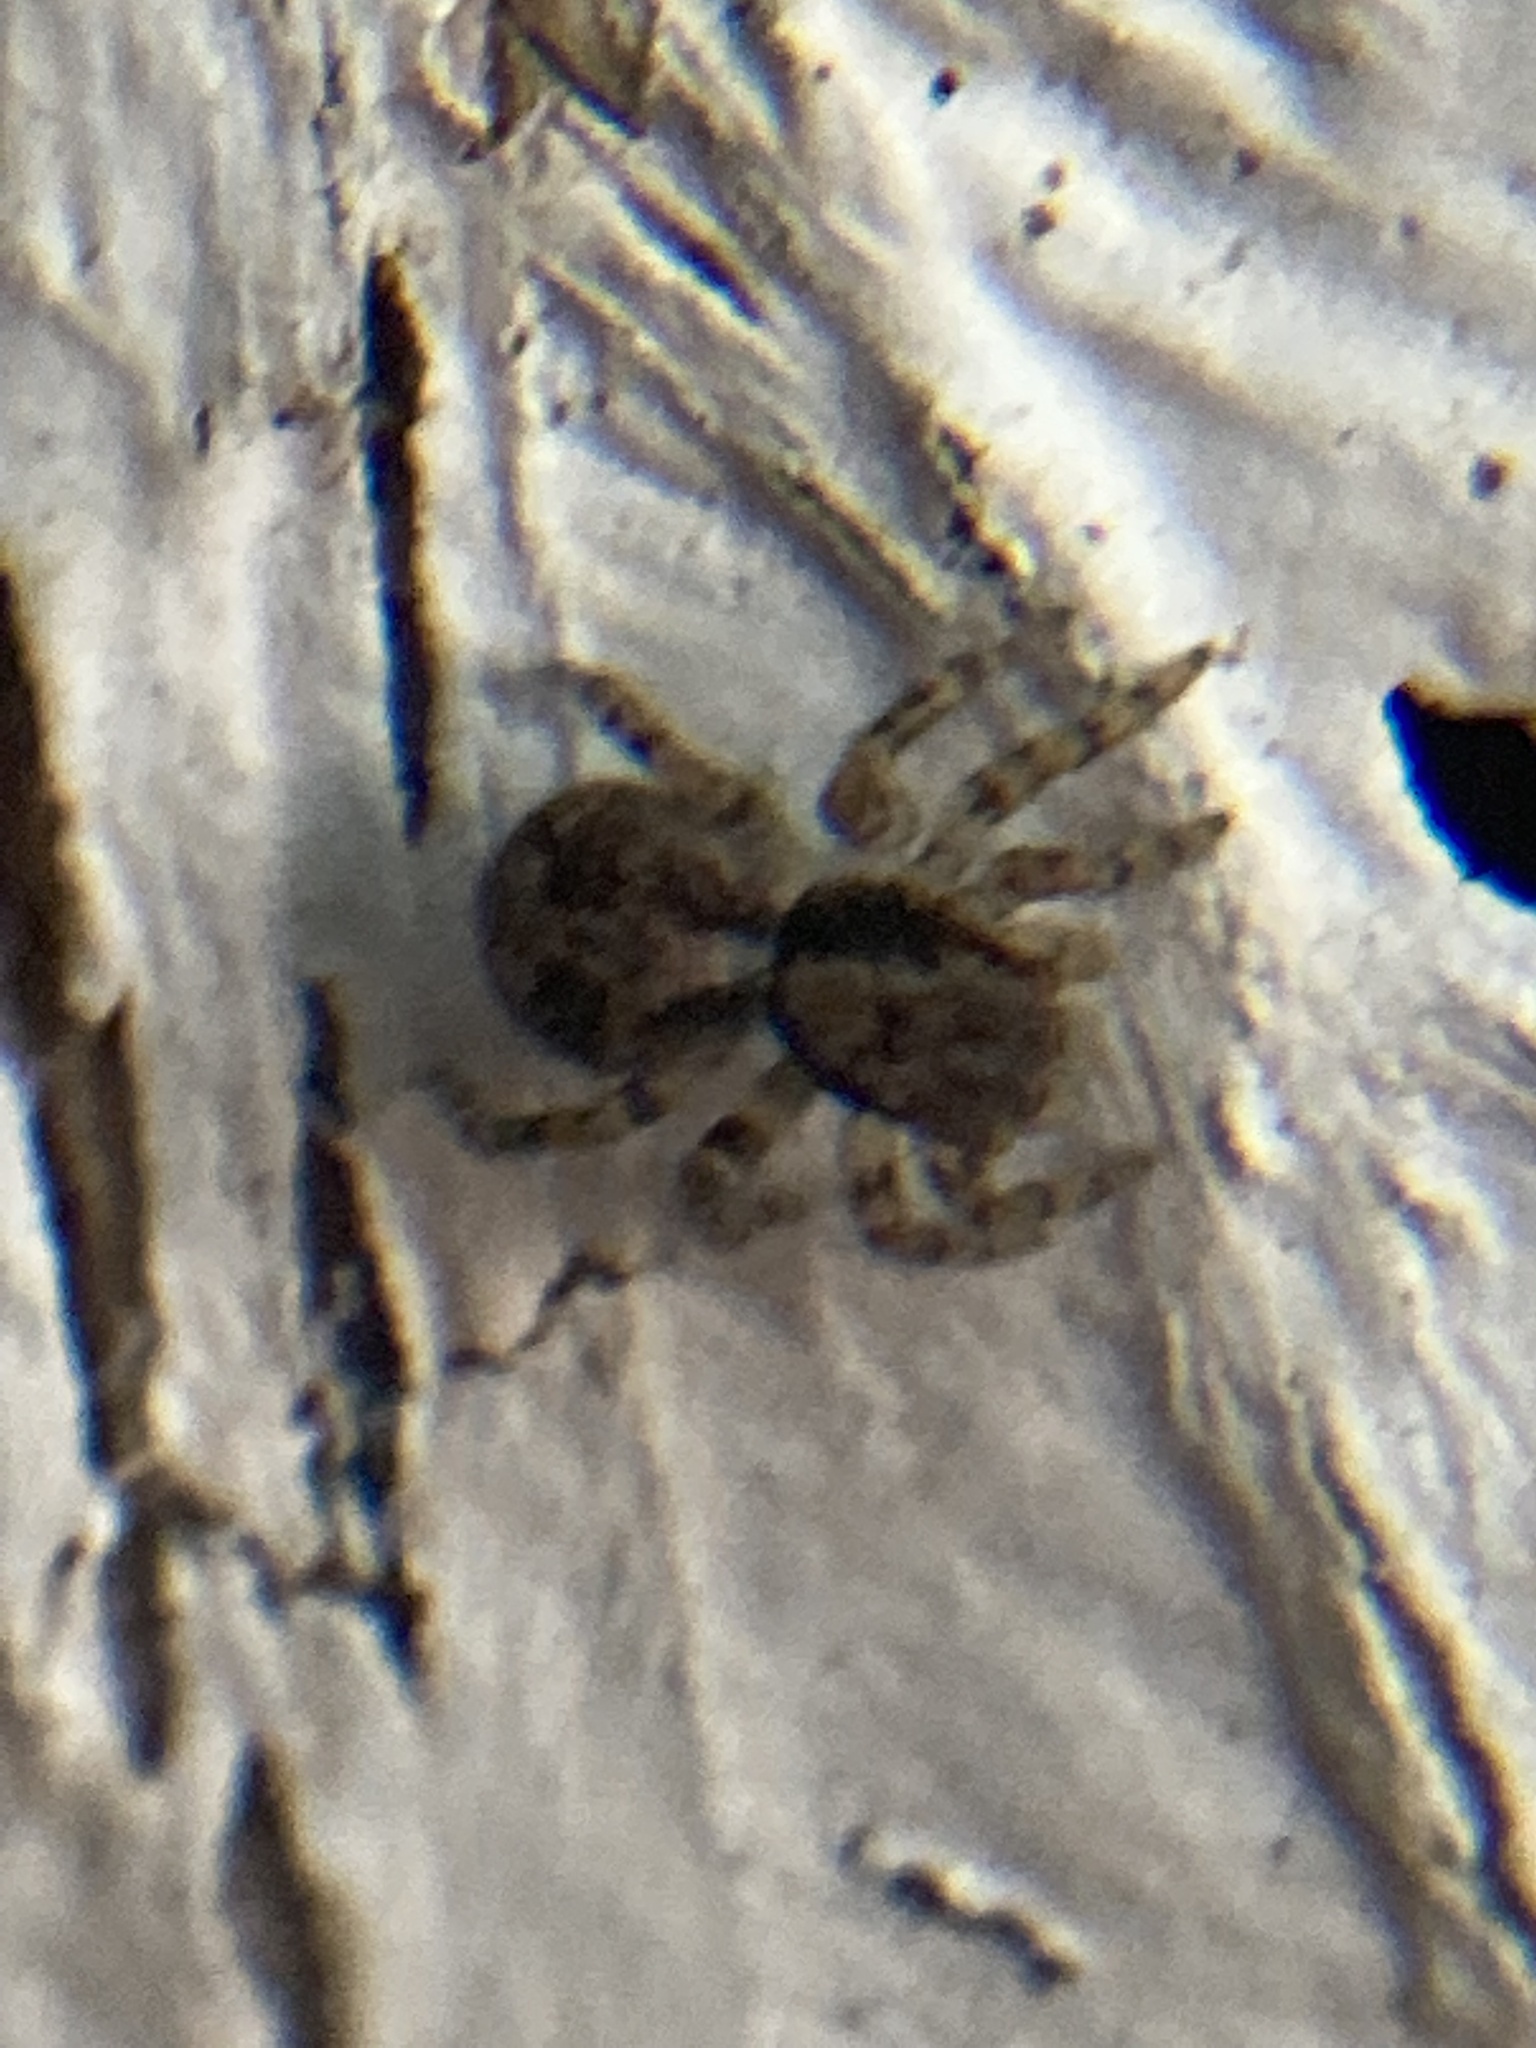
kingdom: Animalia
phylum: Arthropoda
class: Arachnida
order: Araneae
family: Salticidae
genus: Naphrys
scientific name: Naphrys pulex
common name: Flea jumping spider
